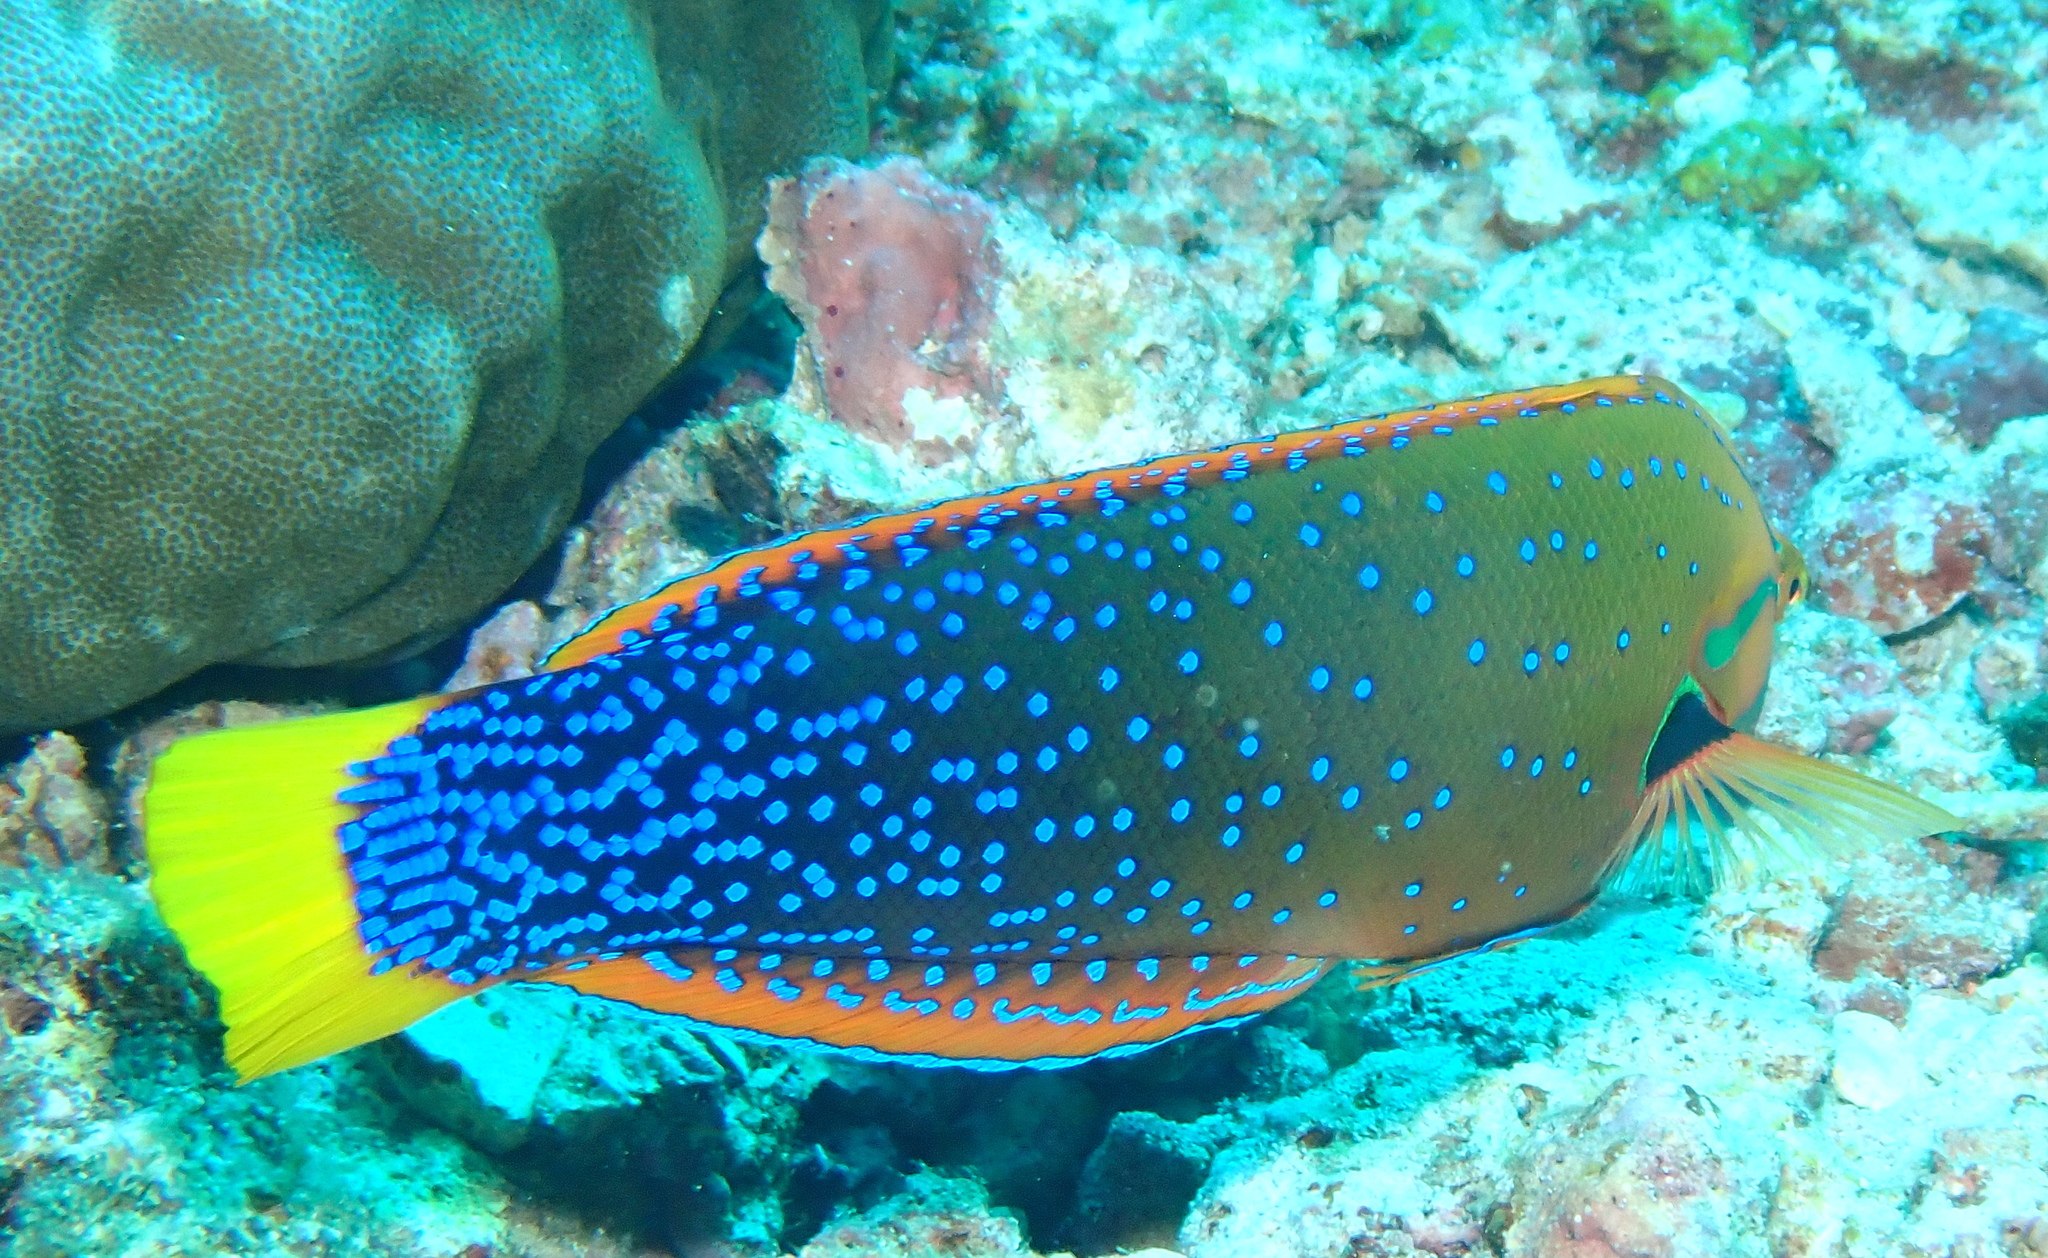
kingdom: Animalia
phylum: Chordata
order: Perciformes
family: Labridae
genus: Coris
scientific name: Coris gaimard
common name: Yellowtail coris
